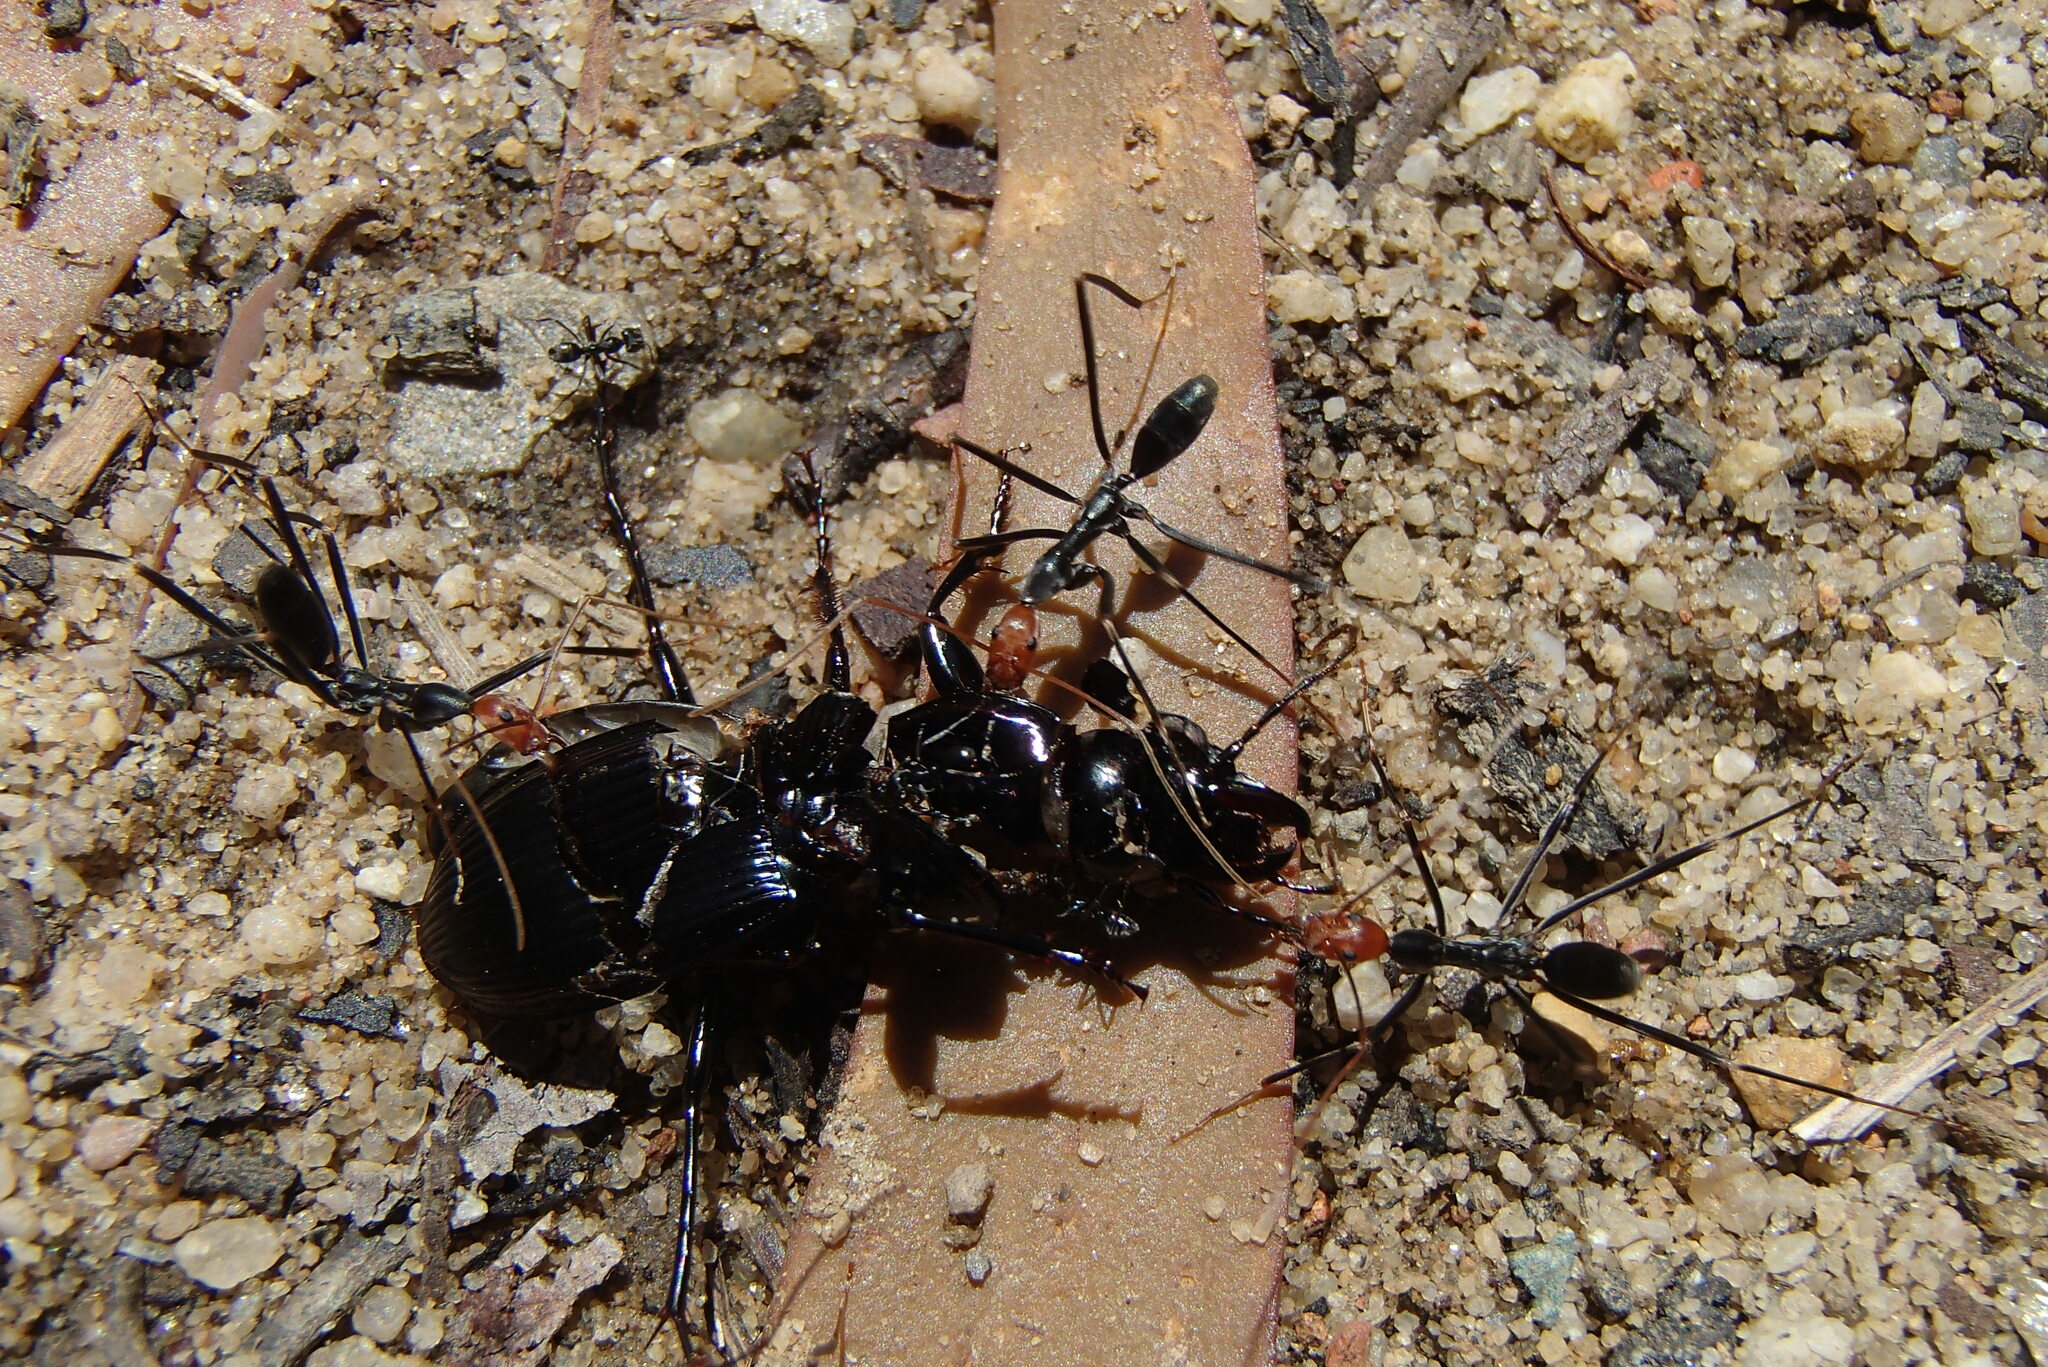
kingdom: Animalia
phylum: Arthropoda
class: Insecta
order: Hymenoptera
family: Formicidae
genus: Leptomyrmex
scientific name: Leptomyrmex erythrocephalus
